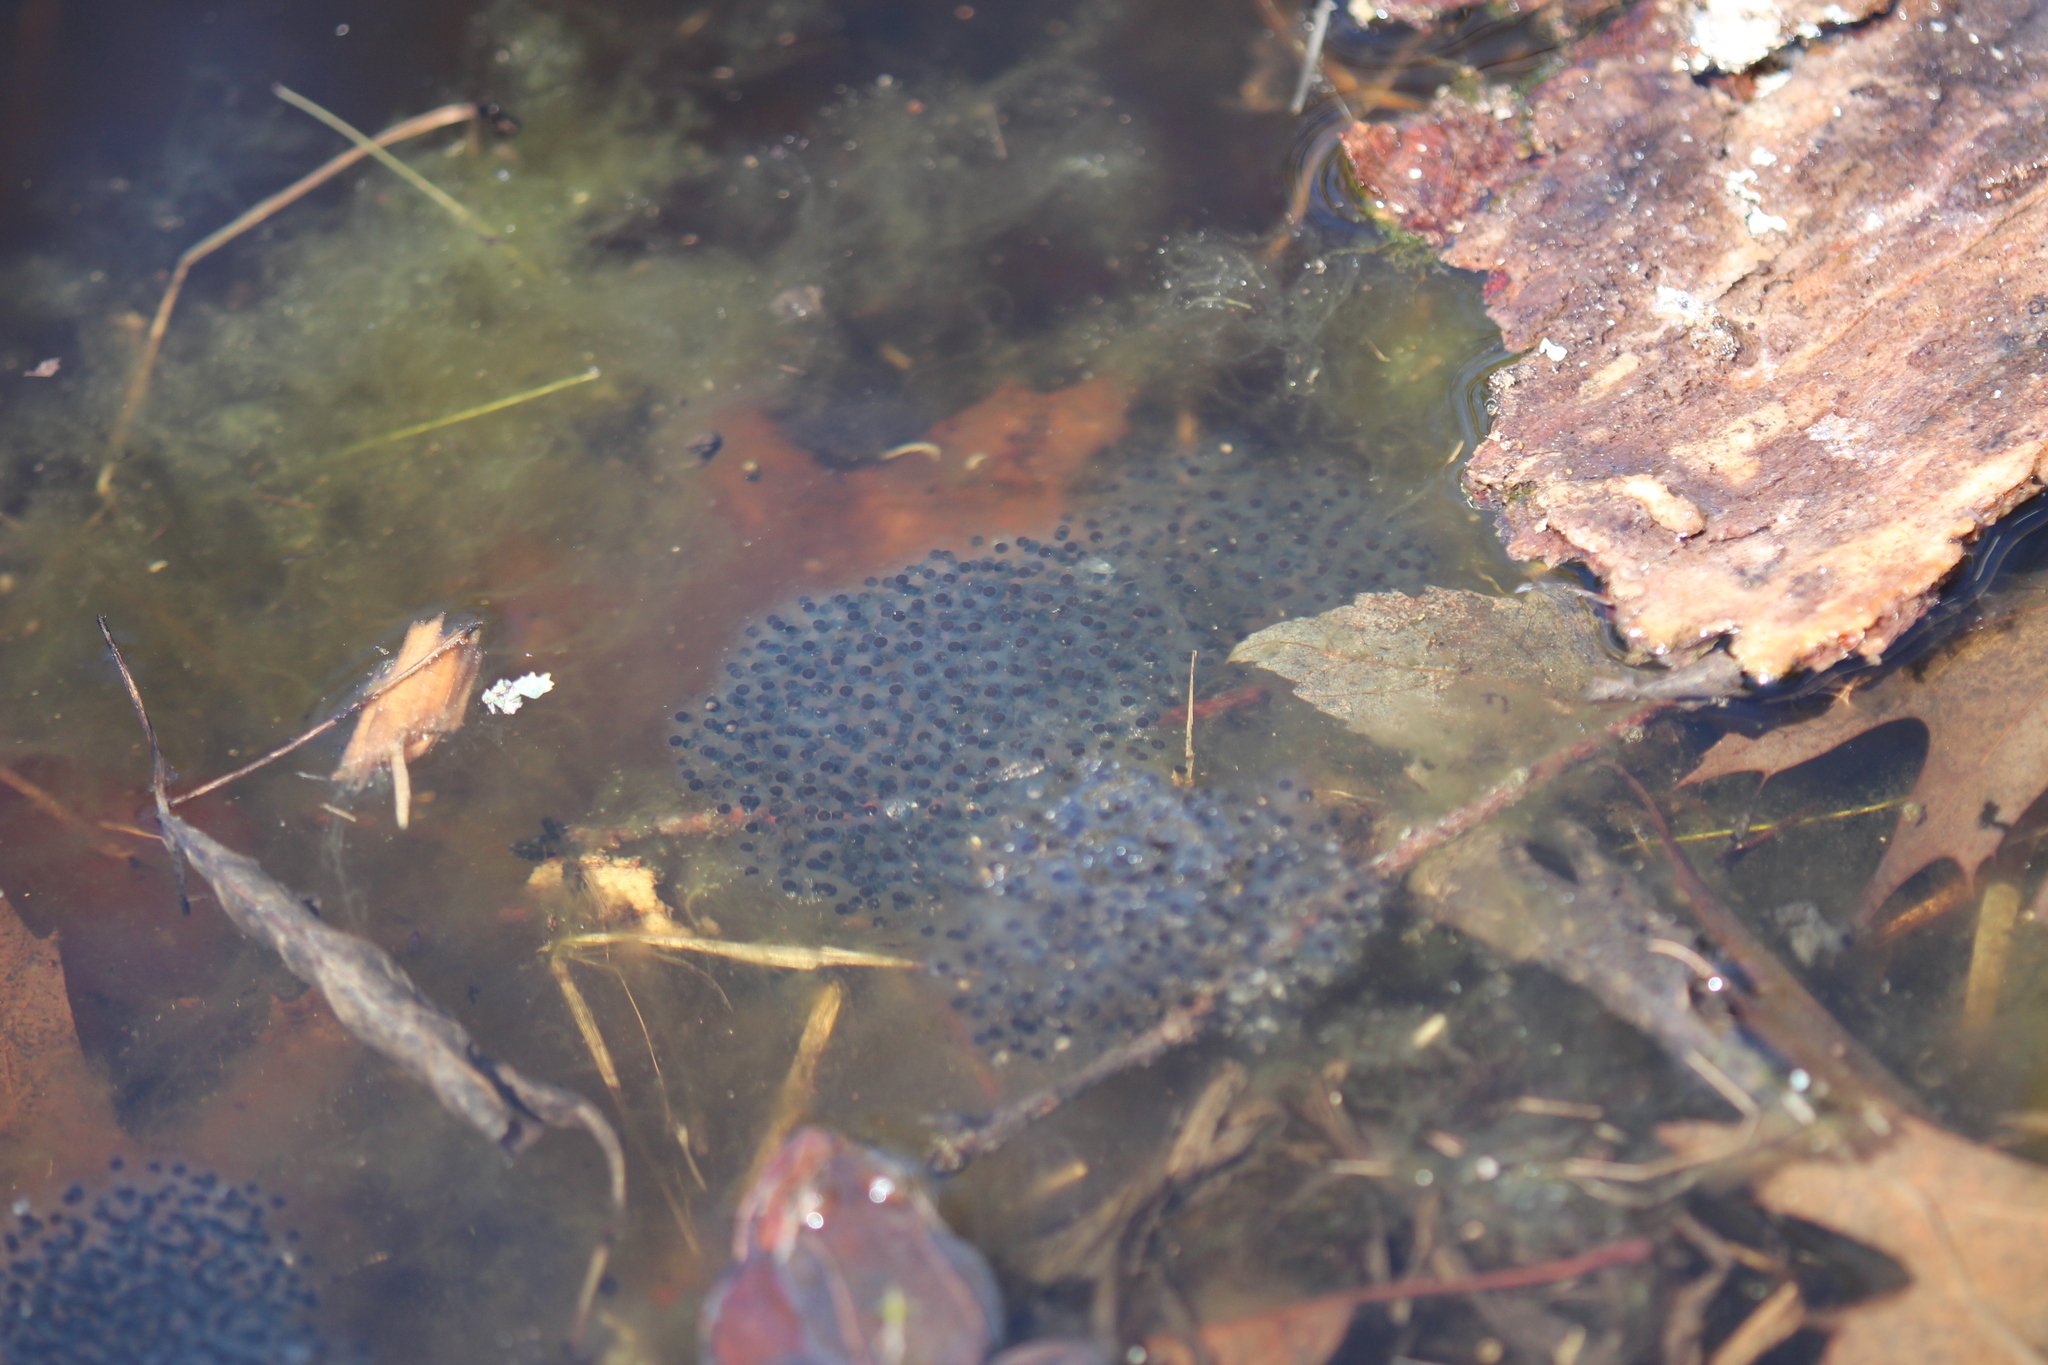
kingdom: Animalia
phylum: Chordata
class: Amphibia
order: Anura
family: Ranidae
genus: Lithobates
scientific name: Lithobates sylvaticus
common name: Wood frog
